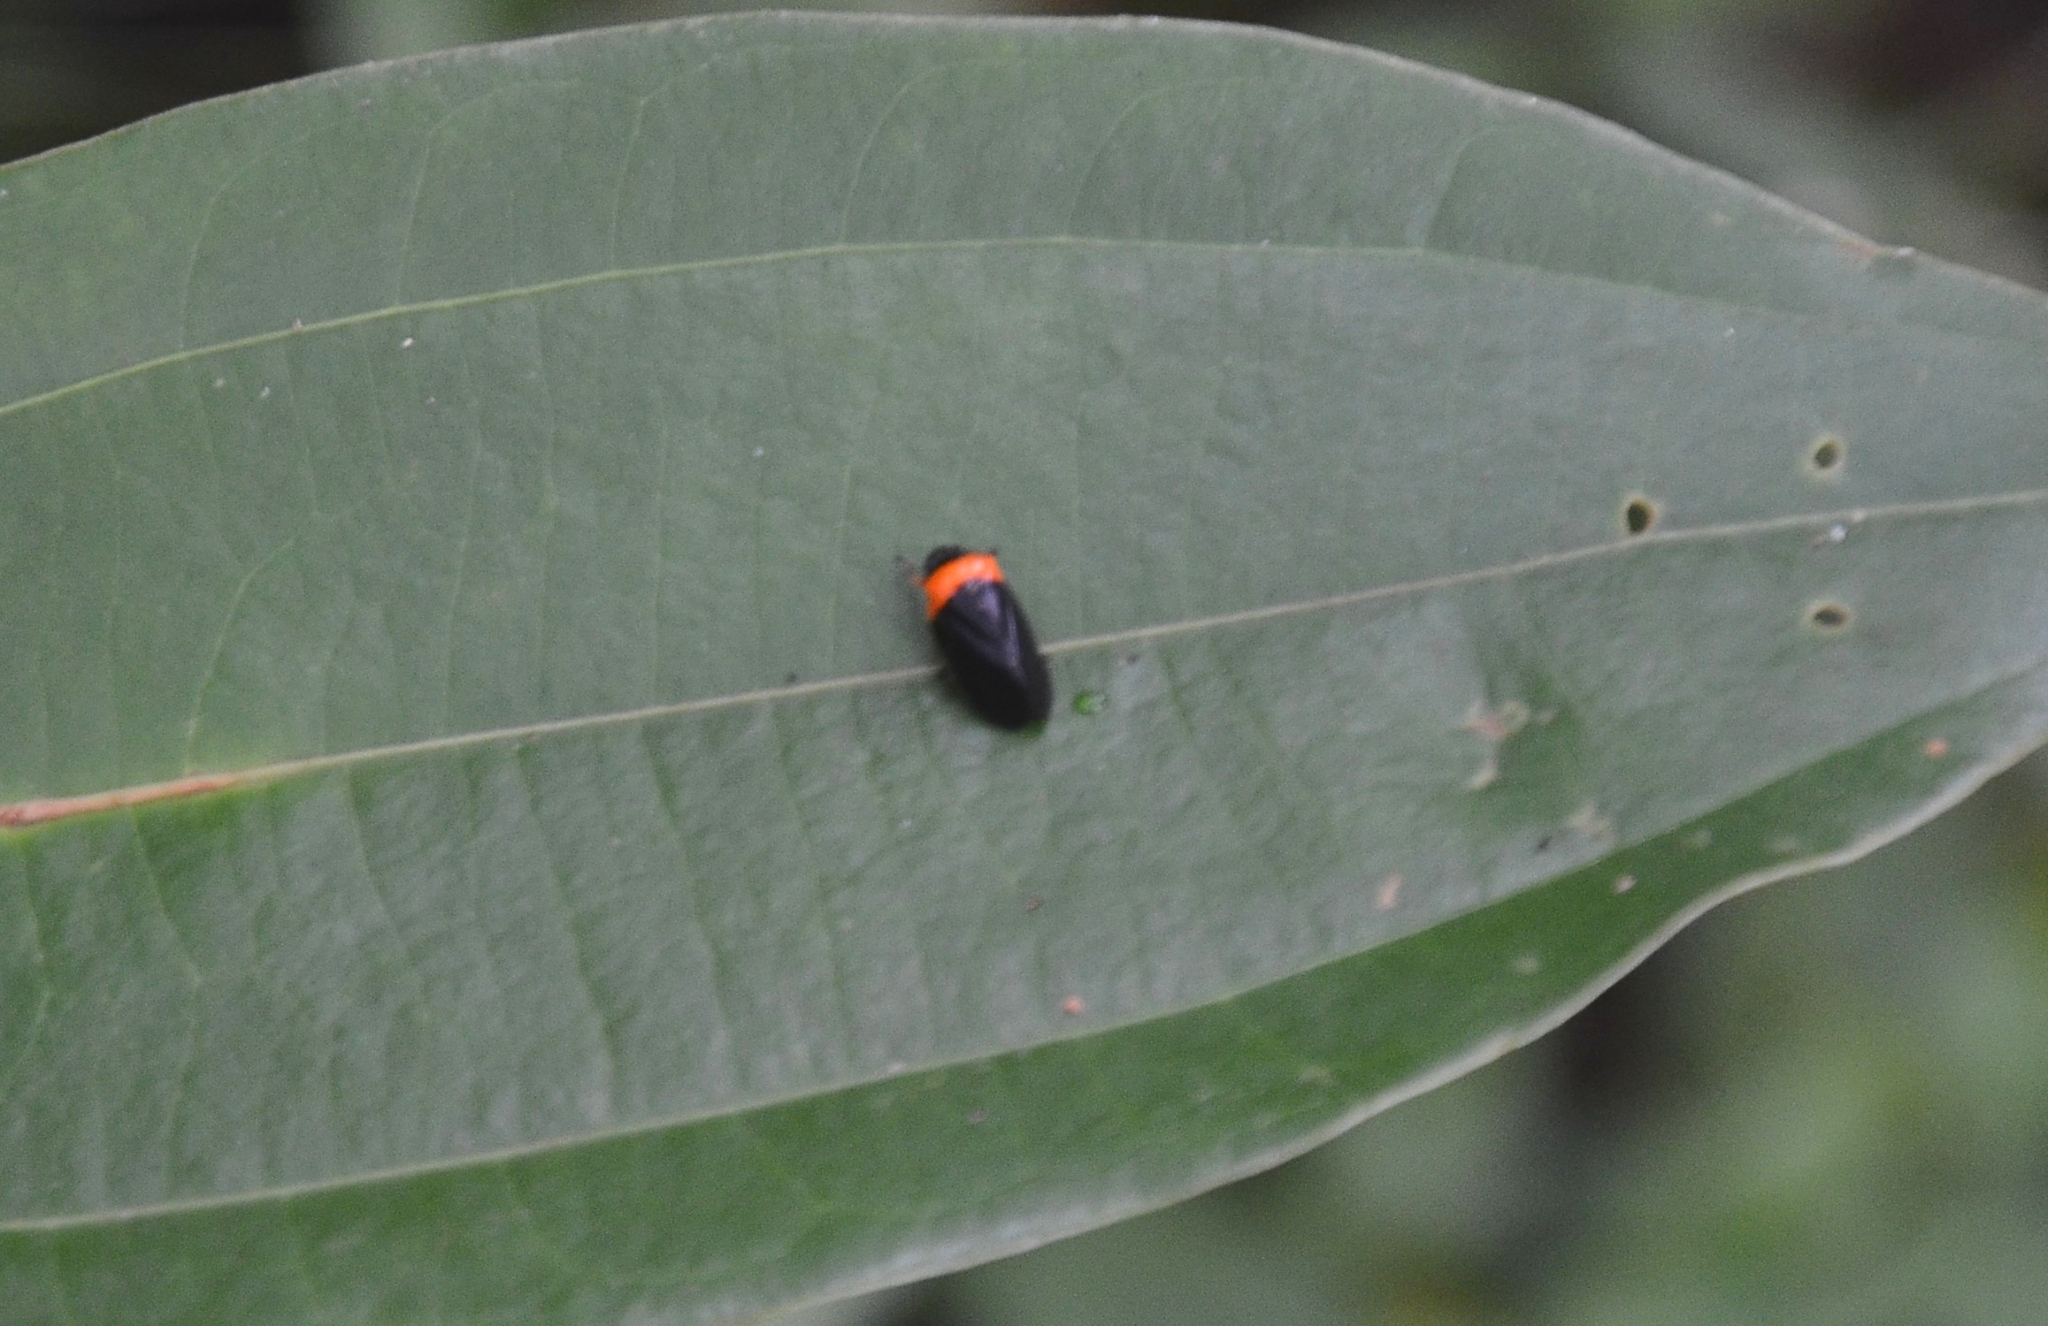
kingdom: Animalia
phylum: Arthropoda
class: Insecta
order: Hemiptera
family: Cercopidae
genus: Phymatostetha
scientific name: Phymatostetha deschampsi
